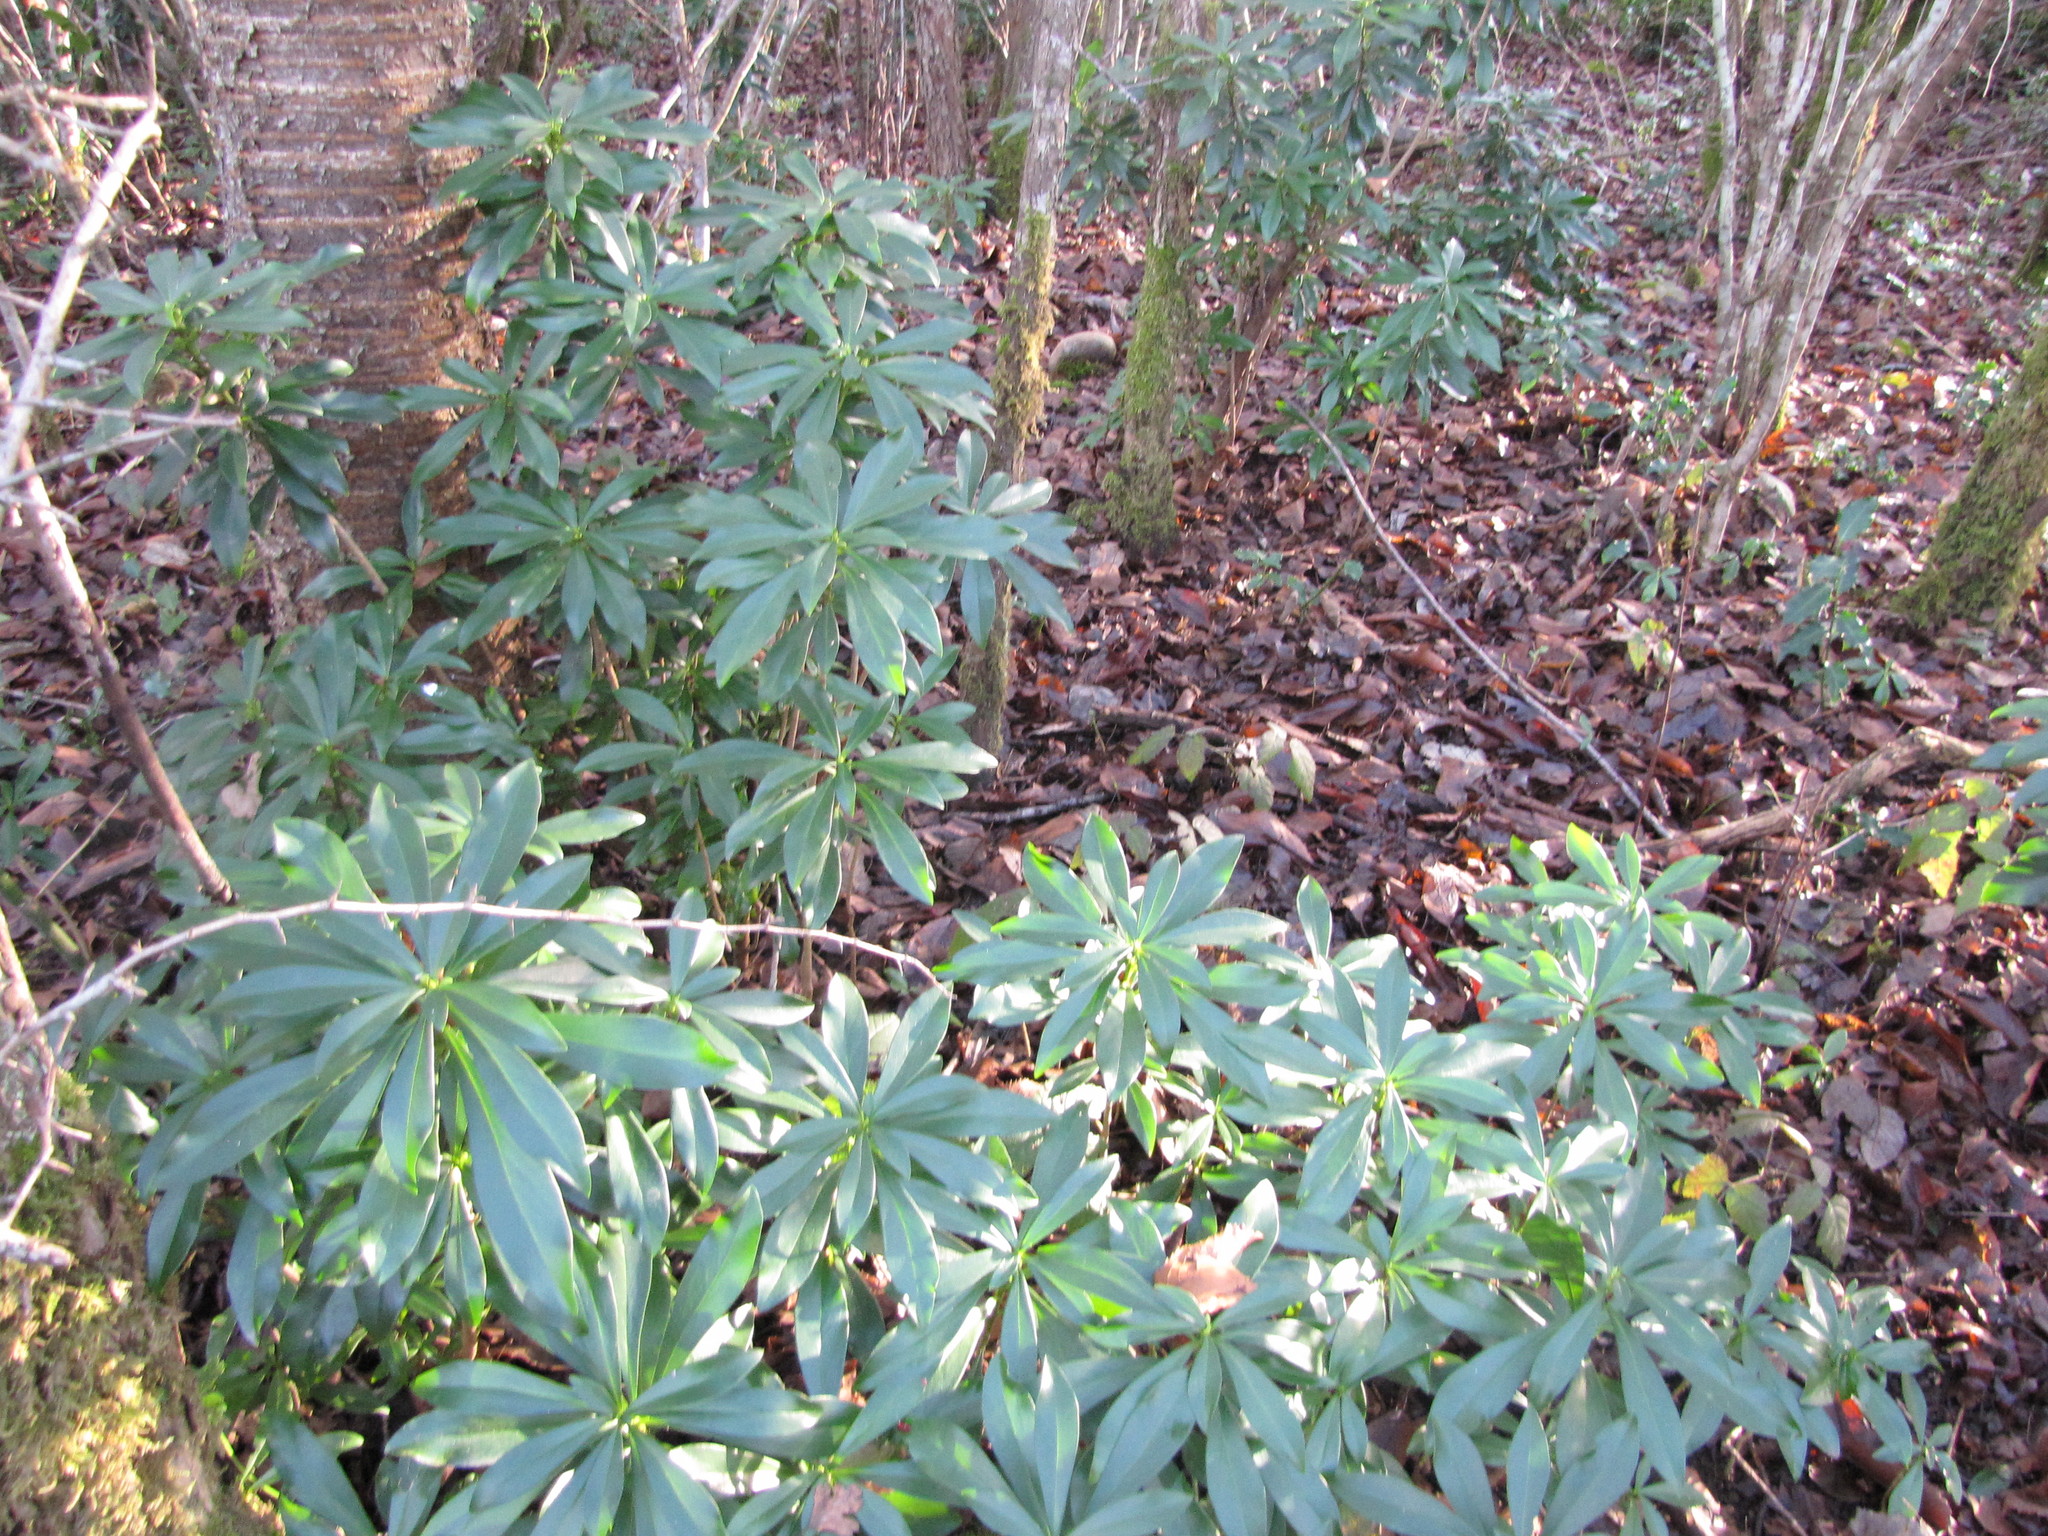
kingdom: Plantae
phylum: Tracheophyta
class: Magnoliopsida
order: Malvales
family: Thymelaeaceae
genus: Daphne
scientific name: Daphne laureola
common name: Spurge-laurel
